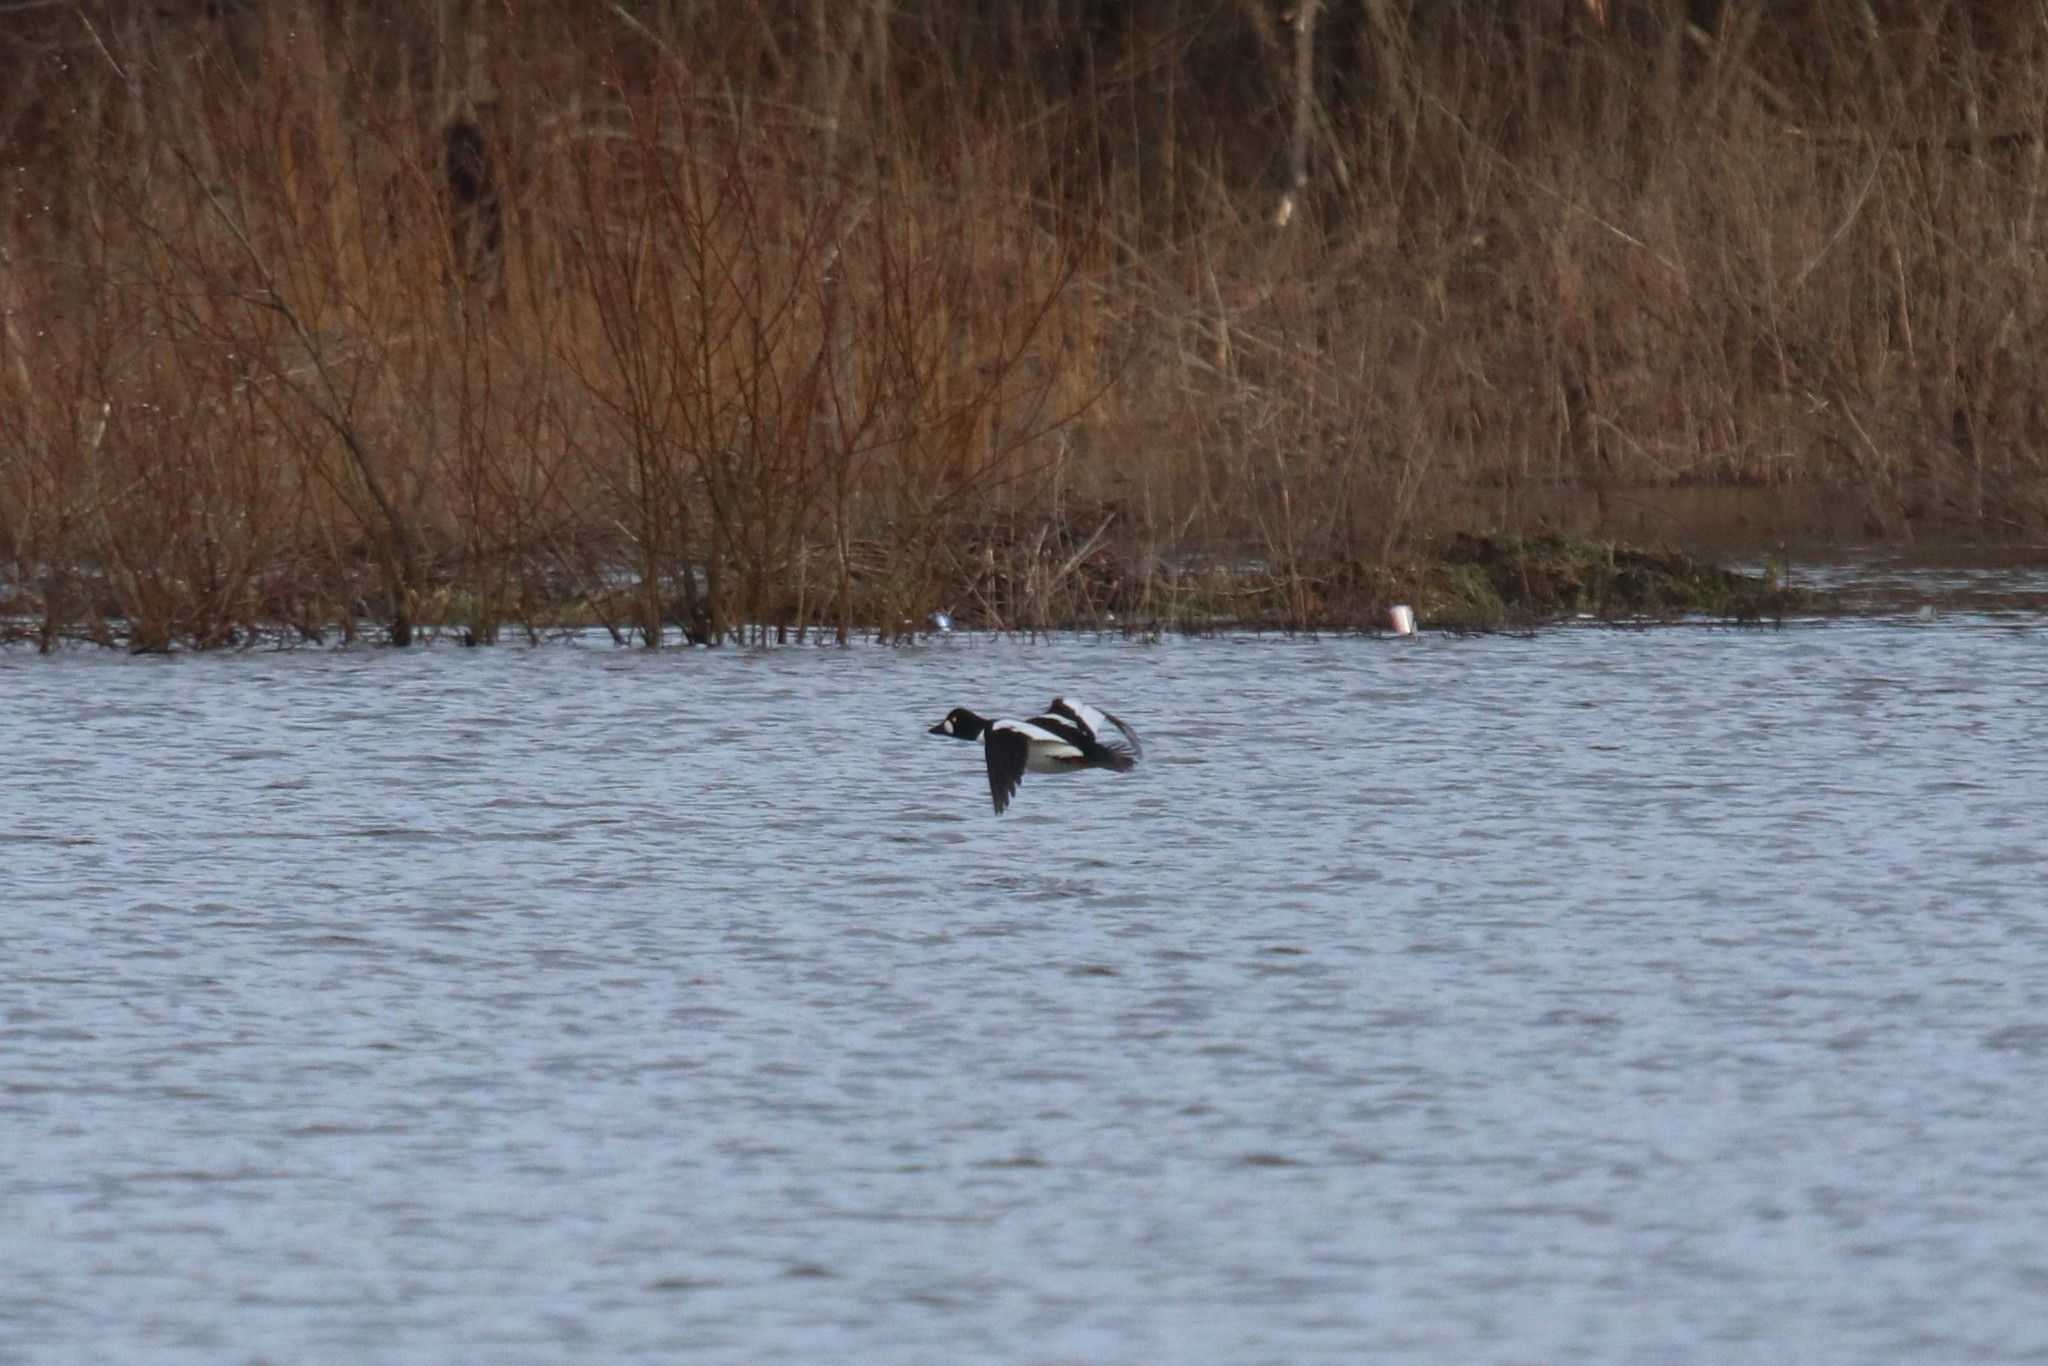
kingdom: Animalia
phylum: Chordata
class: Aves
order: Anseriformes
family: Anatidae
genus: Bucephala
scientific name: Bucephala clangula
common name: Common goldeneye
